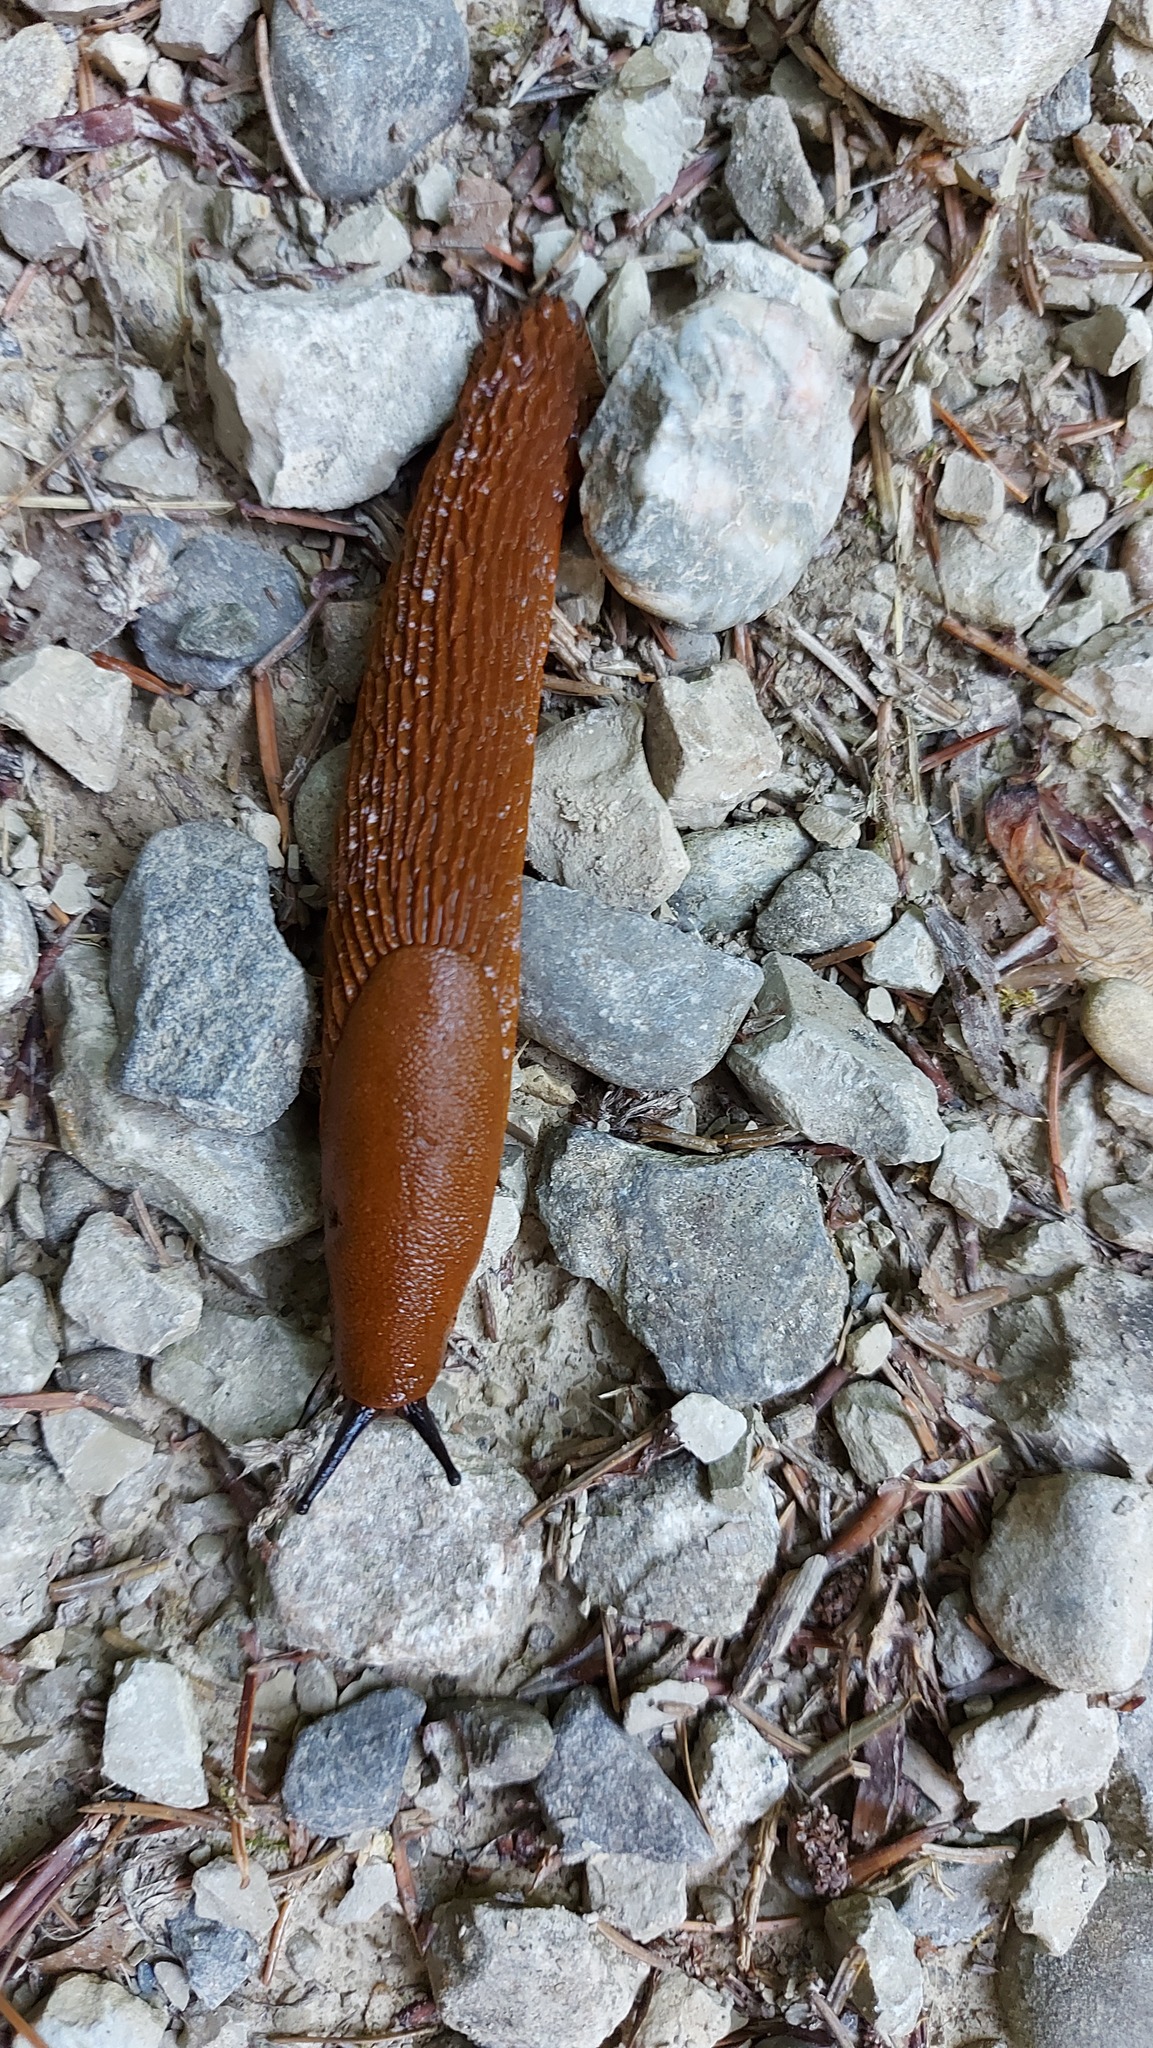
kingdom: Animalia
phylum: Mollusca
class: Gastropoda
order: Stylommatophora
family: Arionidae
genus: Arion
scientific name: Arion rufus
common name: Chocolate arion
